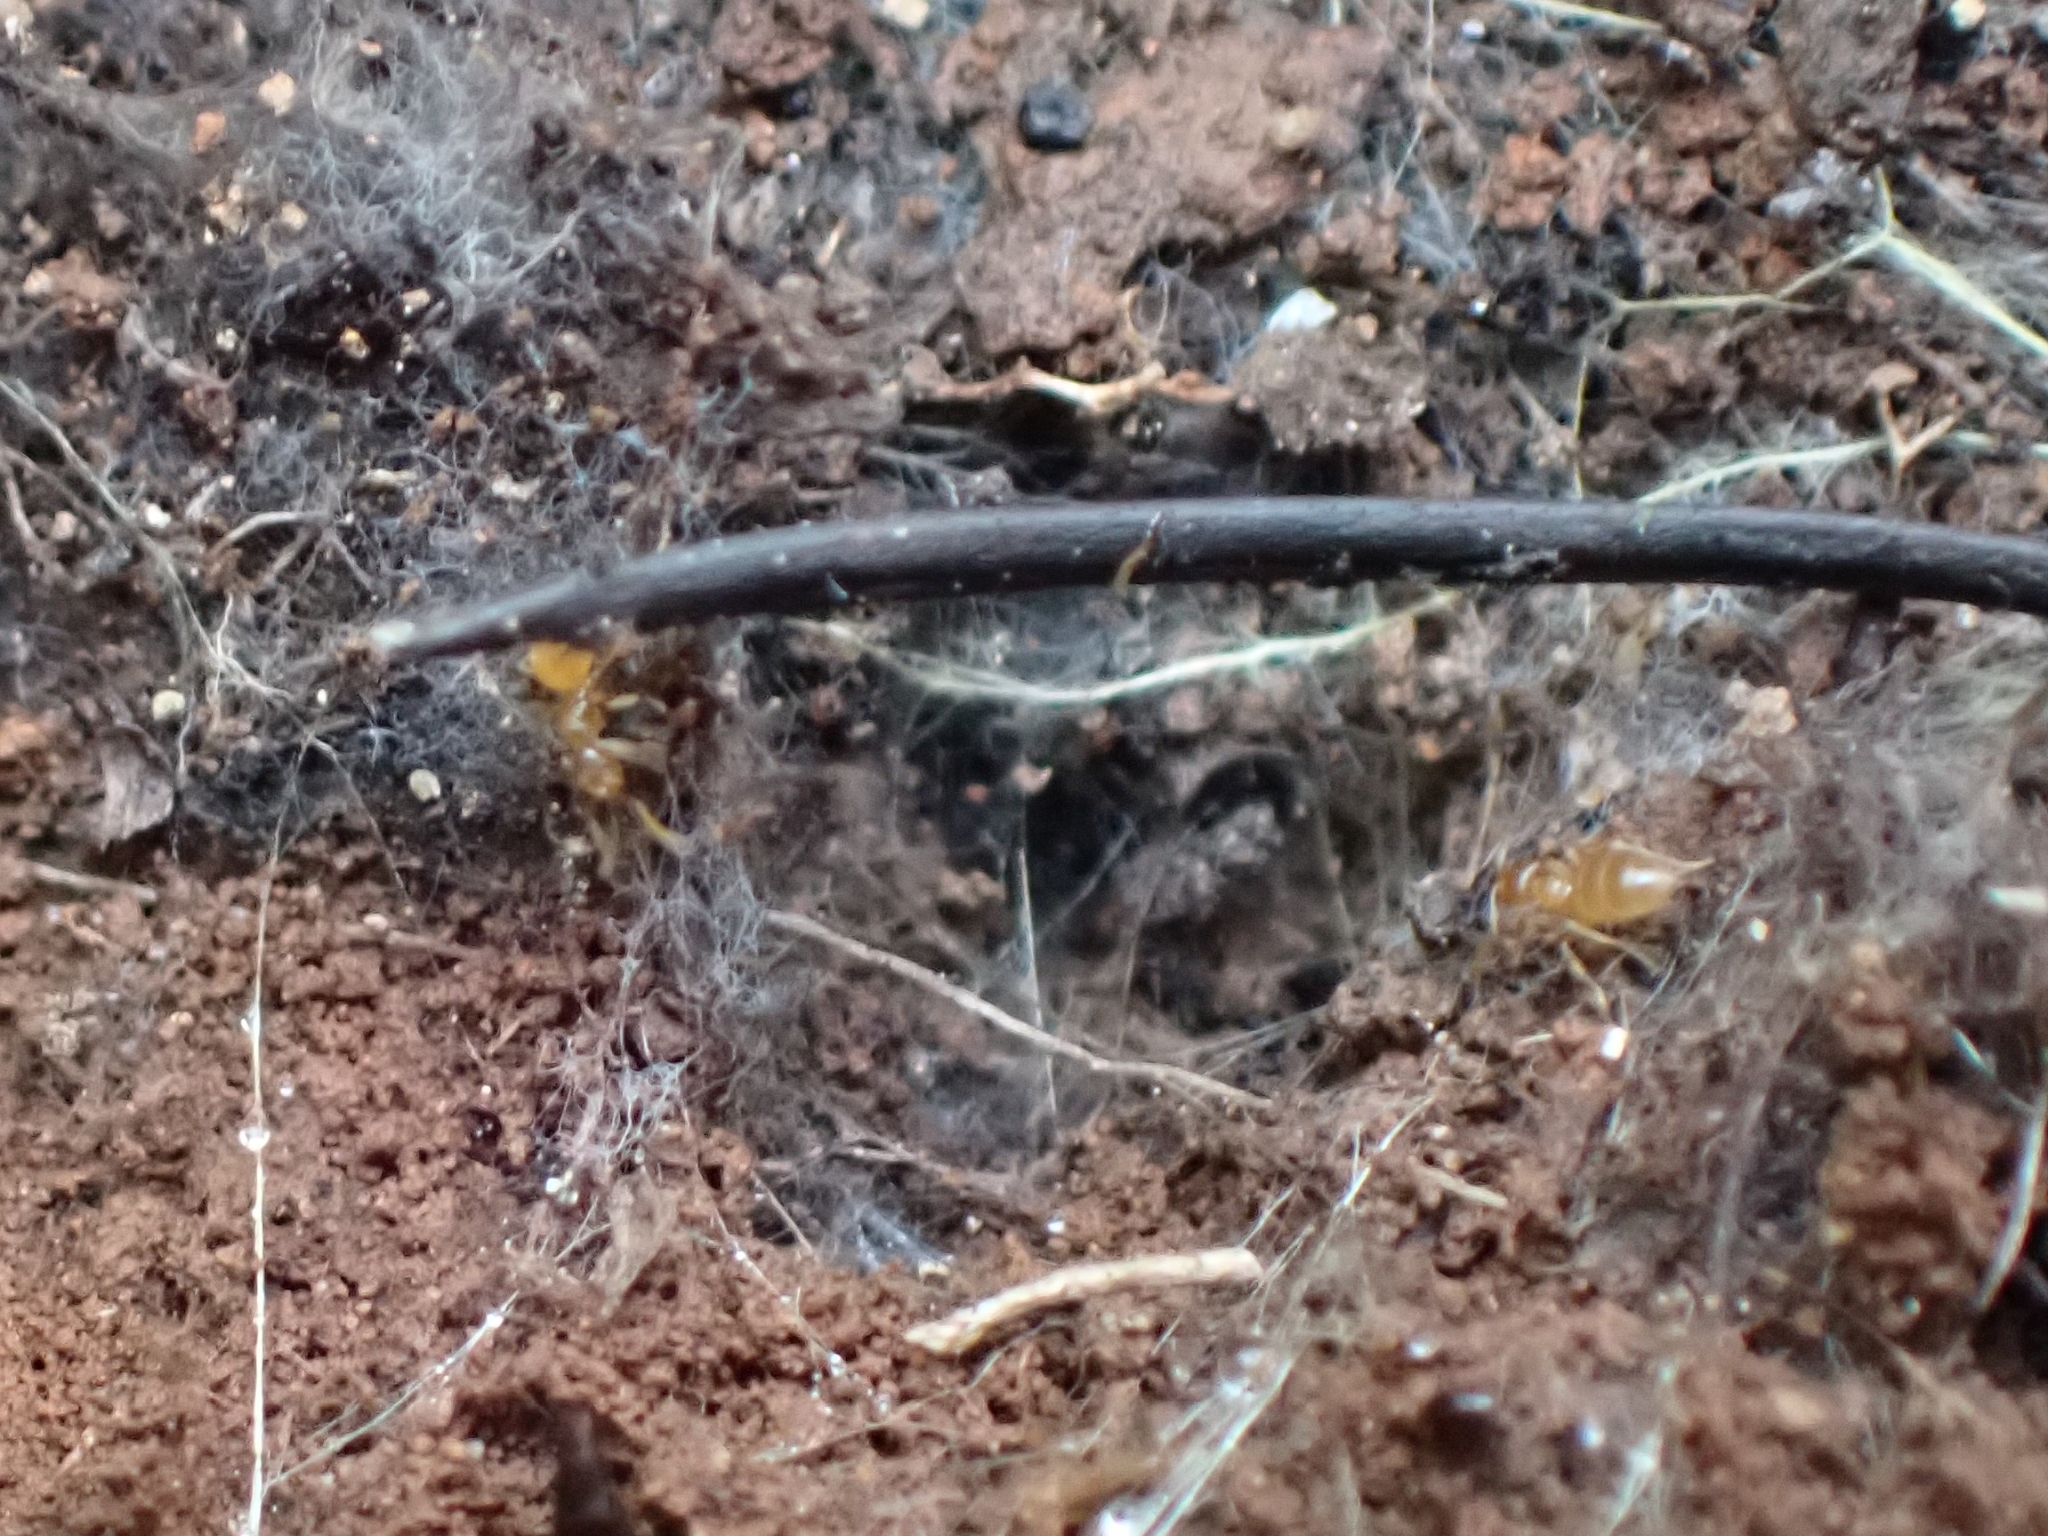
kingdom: Animalia
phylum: Arthropoda
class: Insecta
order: Hymenoptera
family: Formicidae
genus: Brachymyrmex
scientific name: Brachymyrmex depilis
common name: Hairless rover ant
